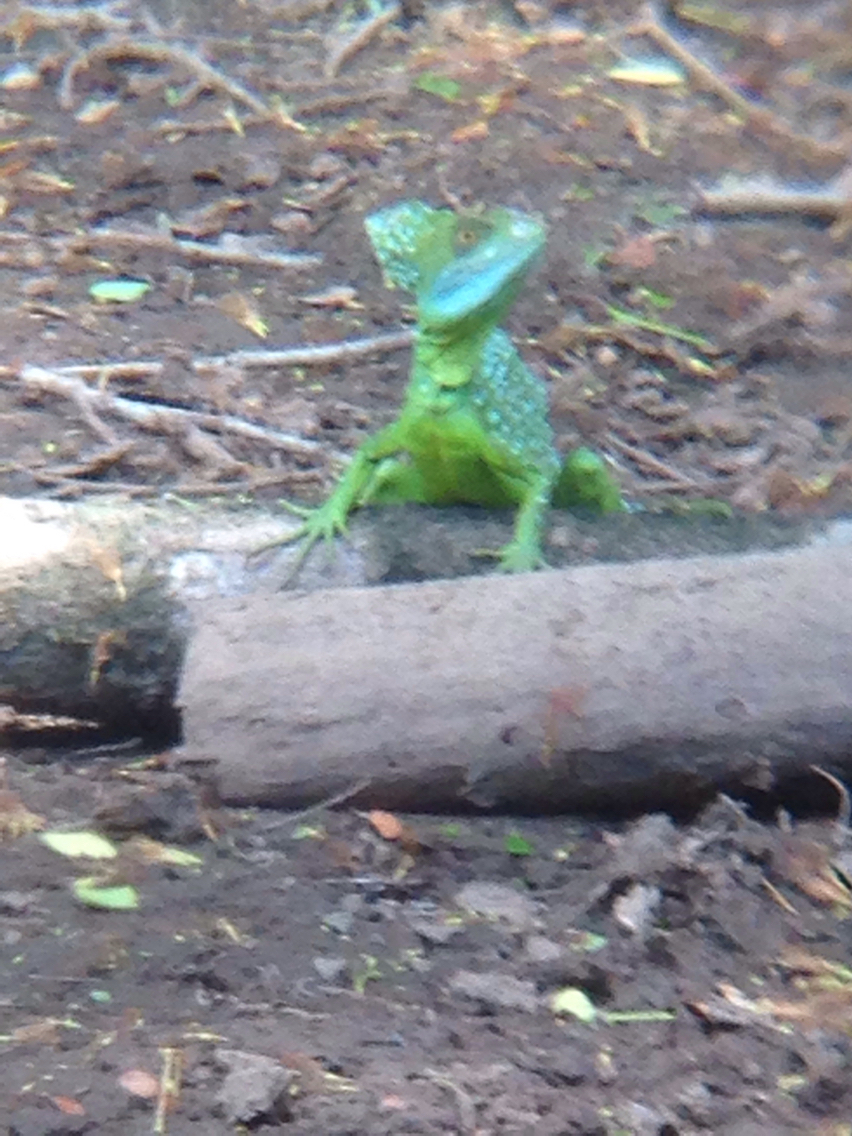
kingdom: Animalia
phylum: Chordata
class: Squamata
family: Corytophanidae
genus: Basiliscus
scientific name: Basiliscus plumifrons
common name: Green basilisk
